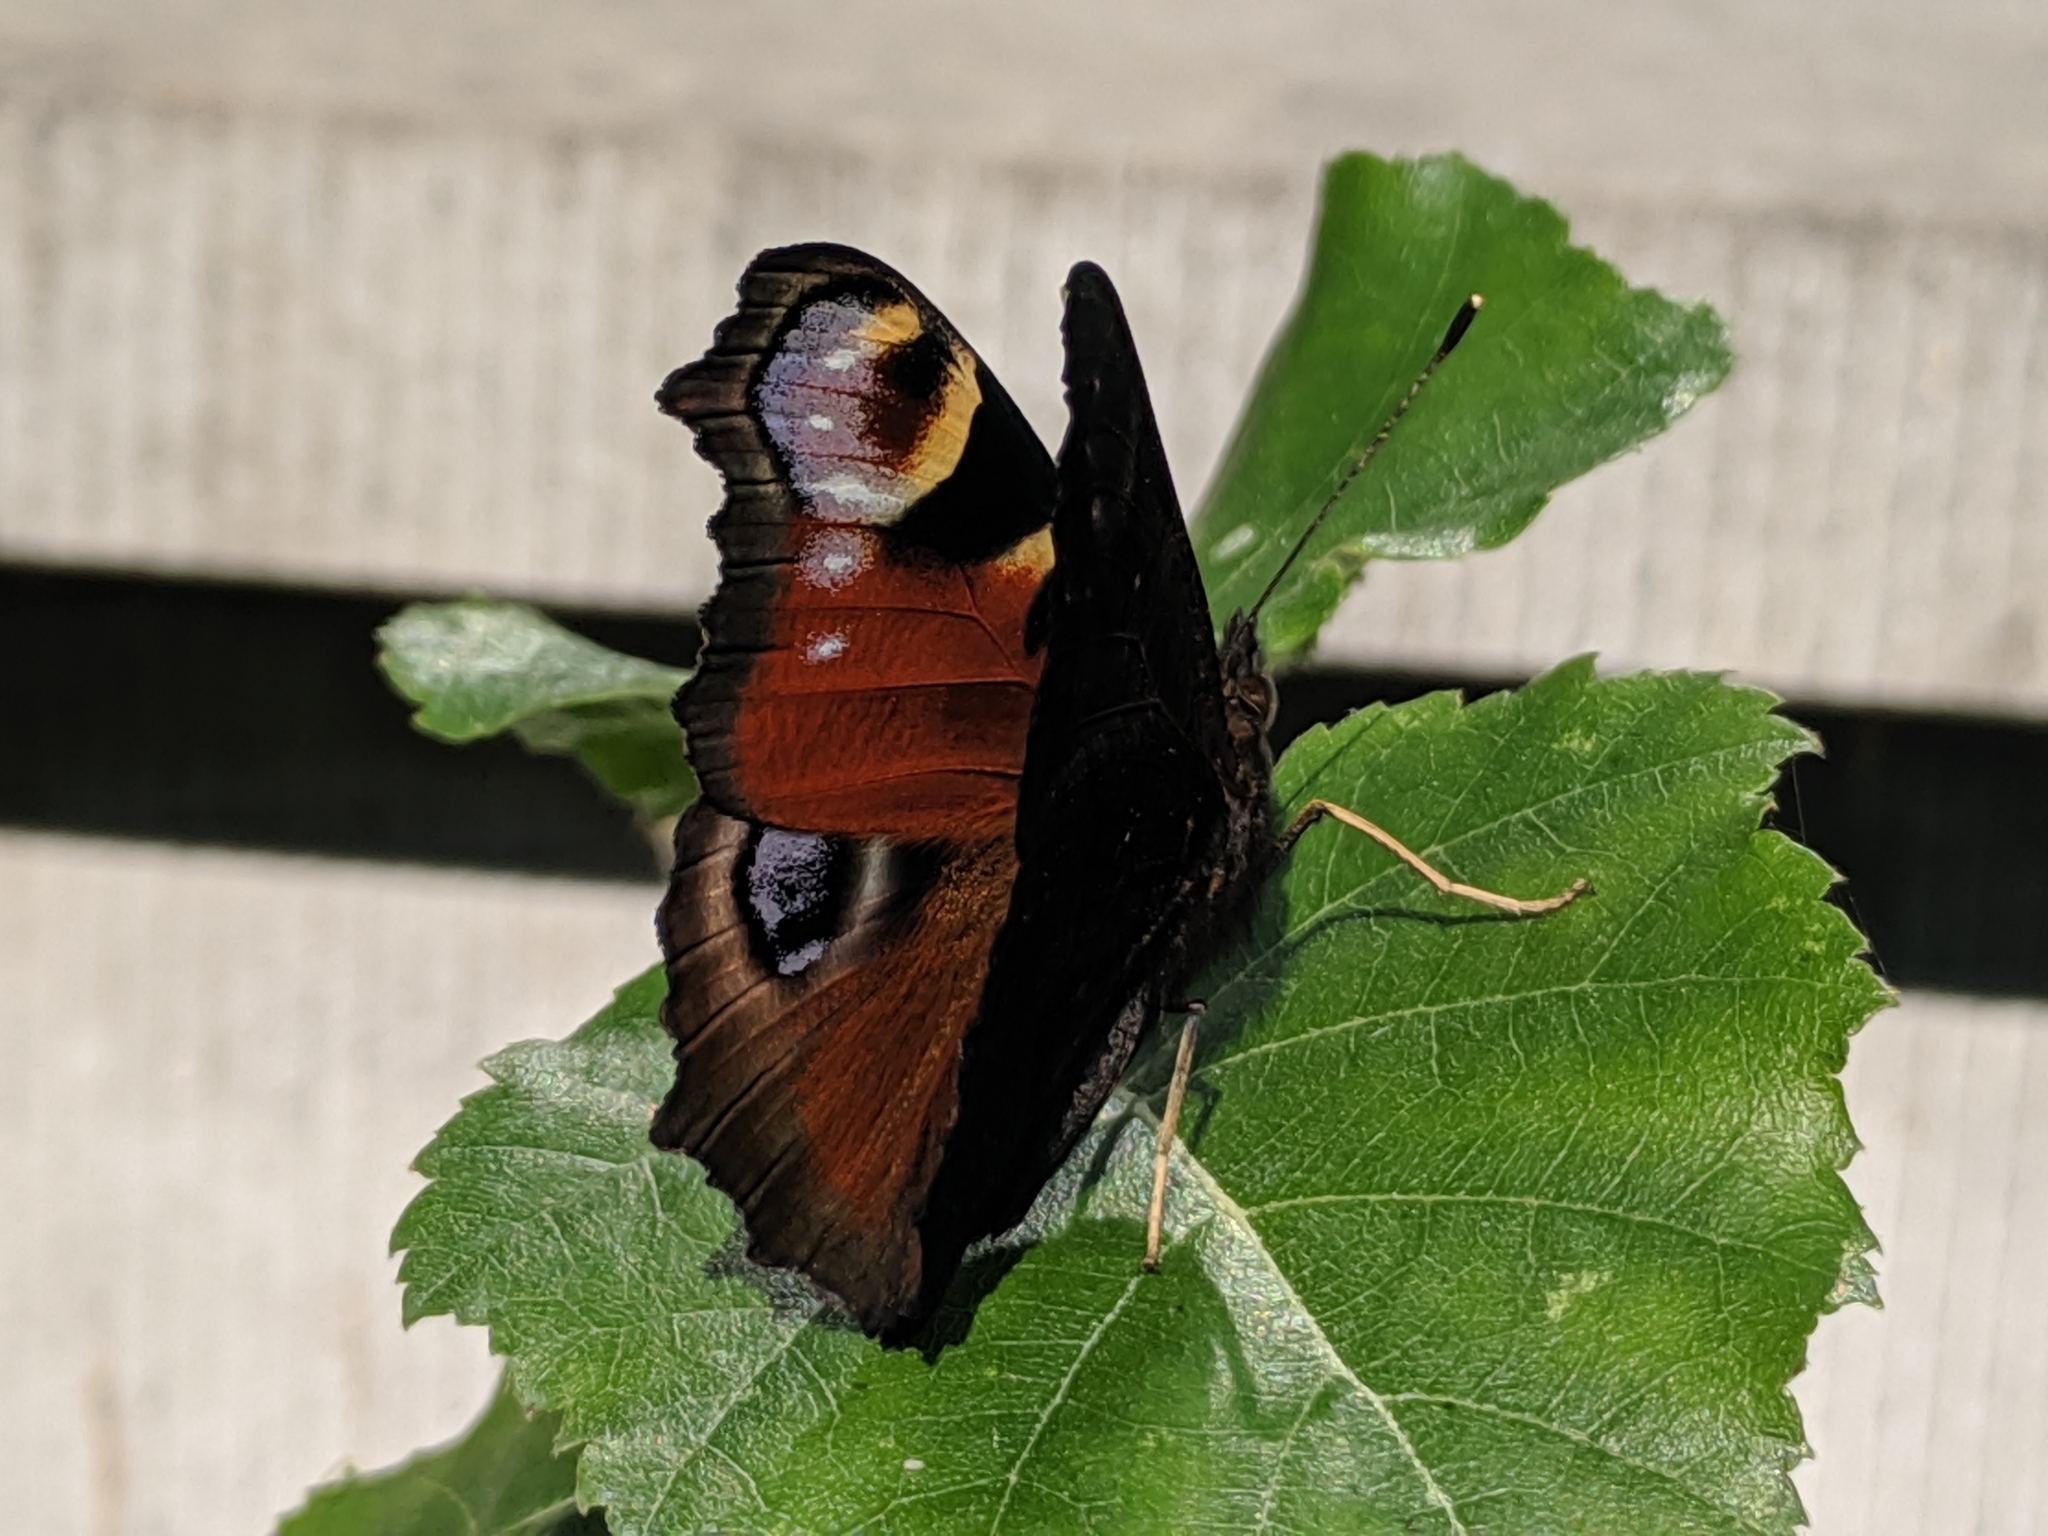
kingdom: Animalia
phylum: Arthropoda
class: Insecta
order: Lepidoptera
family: Nymphalidae
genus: Aglais
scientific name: Aglais io
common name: Peacock
